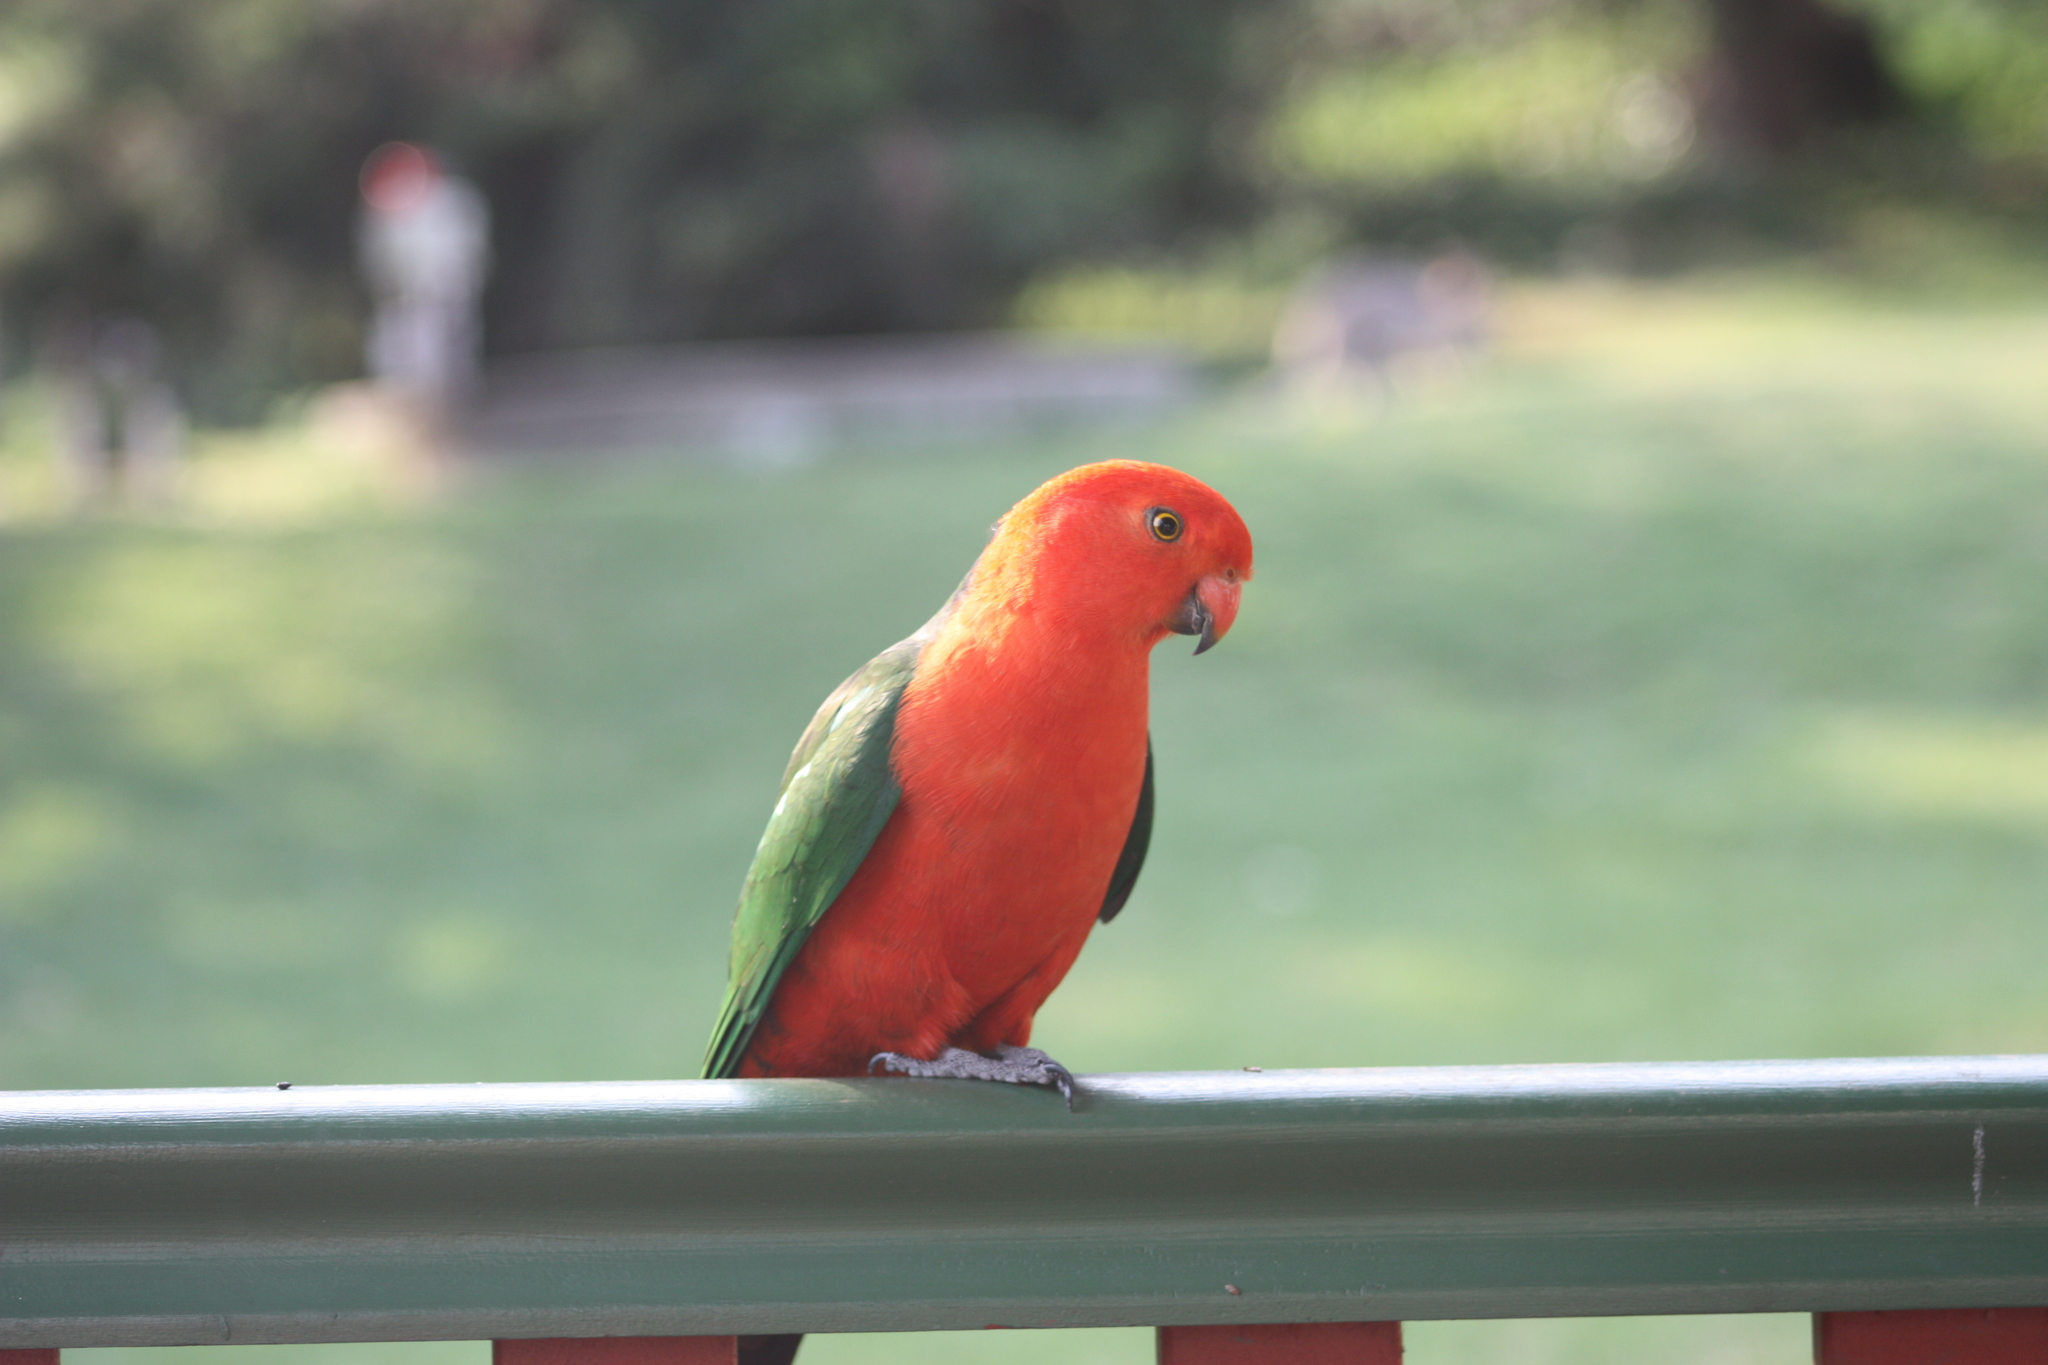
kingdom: Animalia
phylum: Chordata
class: Aves
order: Psittaciformes
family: Psittacidae
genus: Alisterus
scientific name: Alisterus scapularis
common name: Australian king parrot
